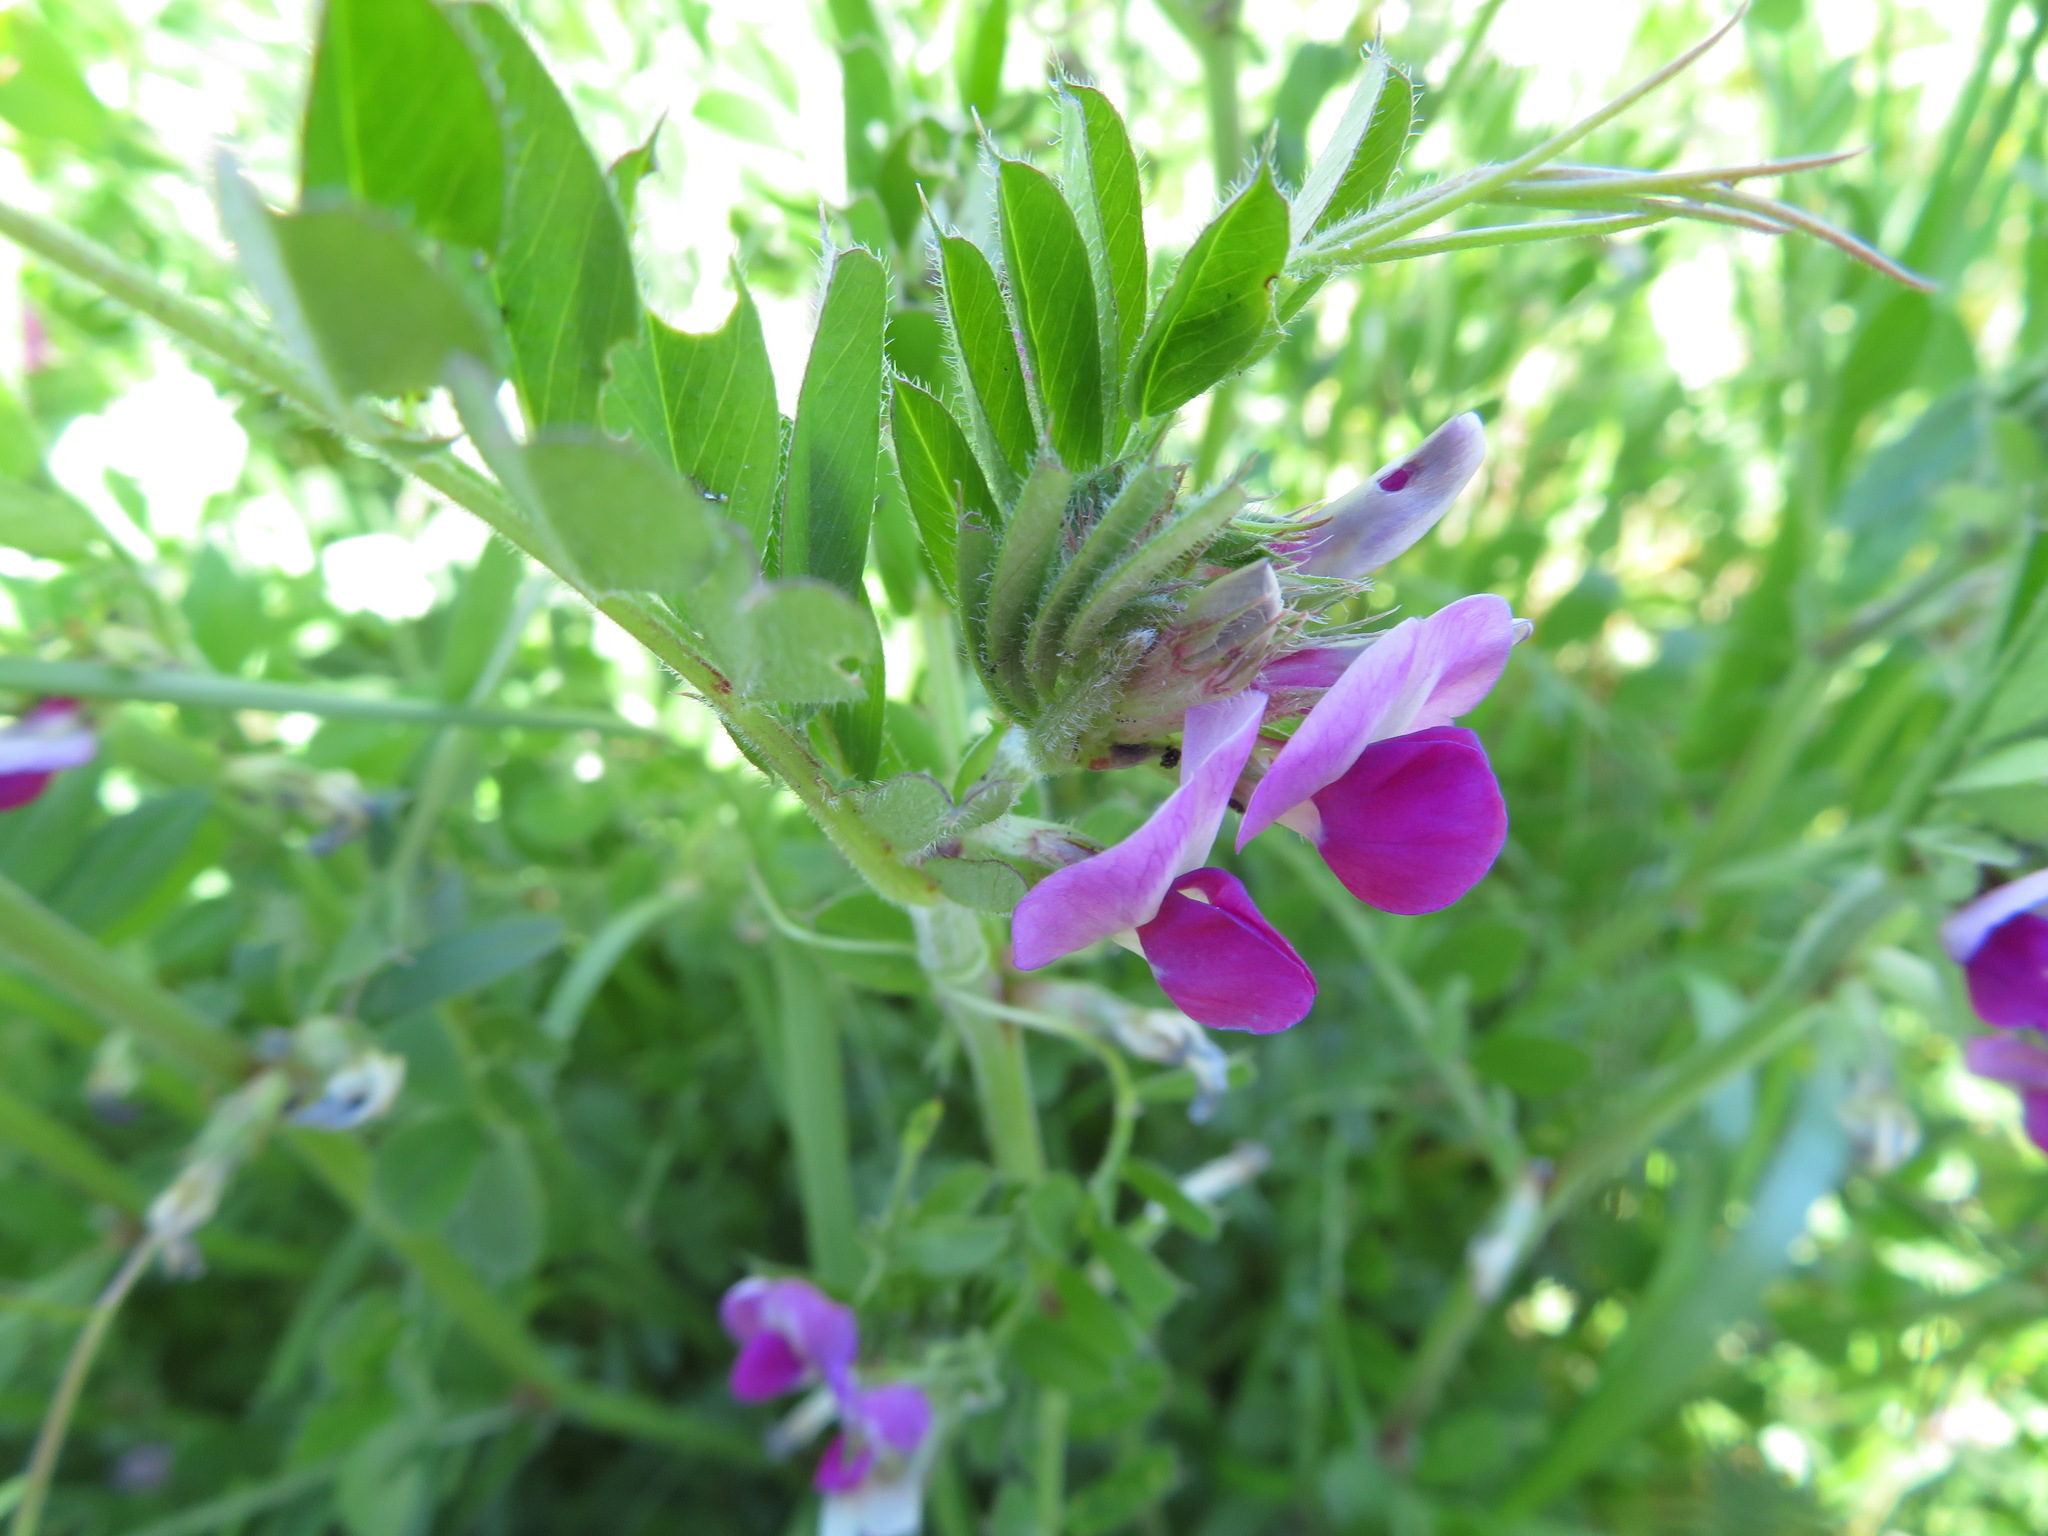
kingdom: Plantae
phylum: Tracheophyta
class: Magnoliopsida
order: Fabales
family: Fabaceae
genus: Vicia
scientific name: Vicia sativa
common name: Garden vetch
